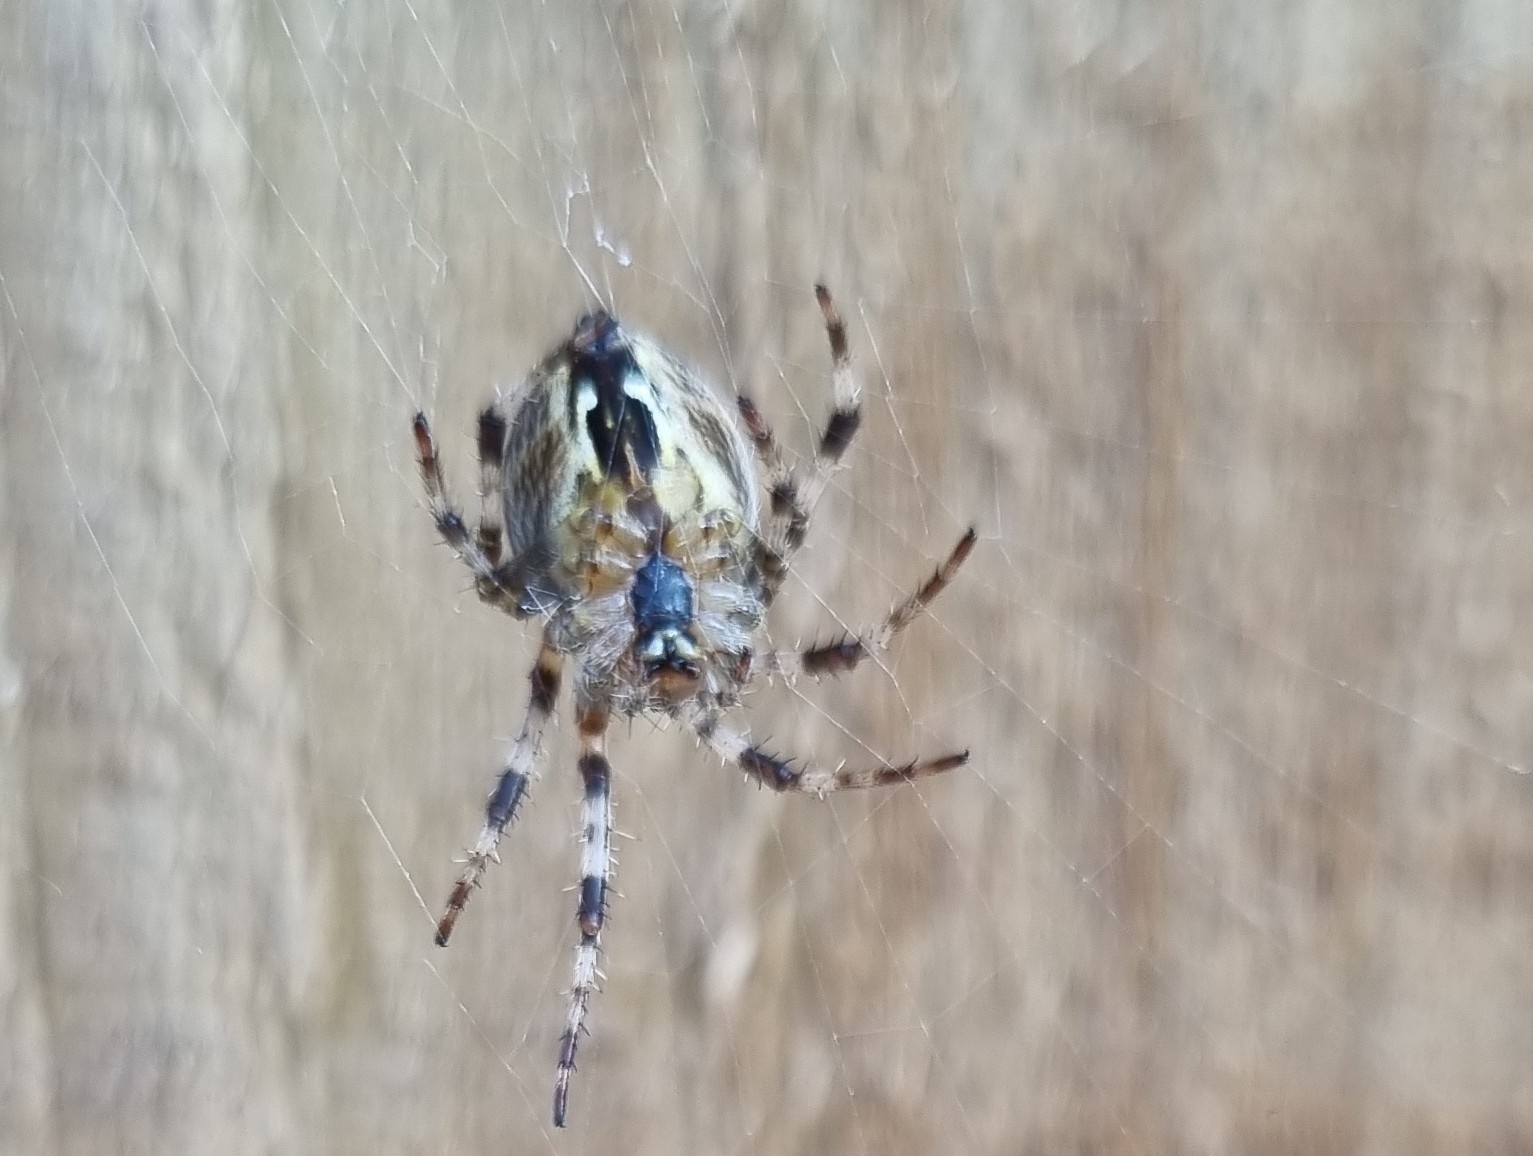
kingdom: Animalia
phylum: Arthropoda
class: Arachnida
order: Araneae
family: Araneidae
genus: Araneus
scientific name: Araneus diadematus
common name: Cross orbweaver
